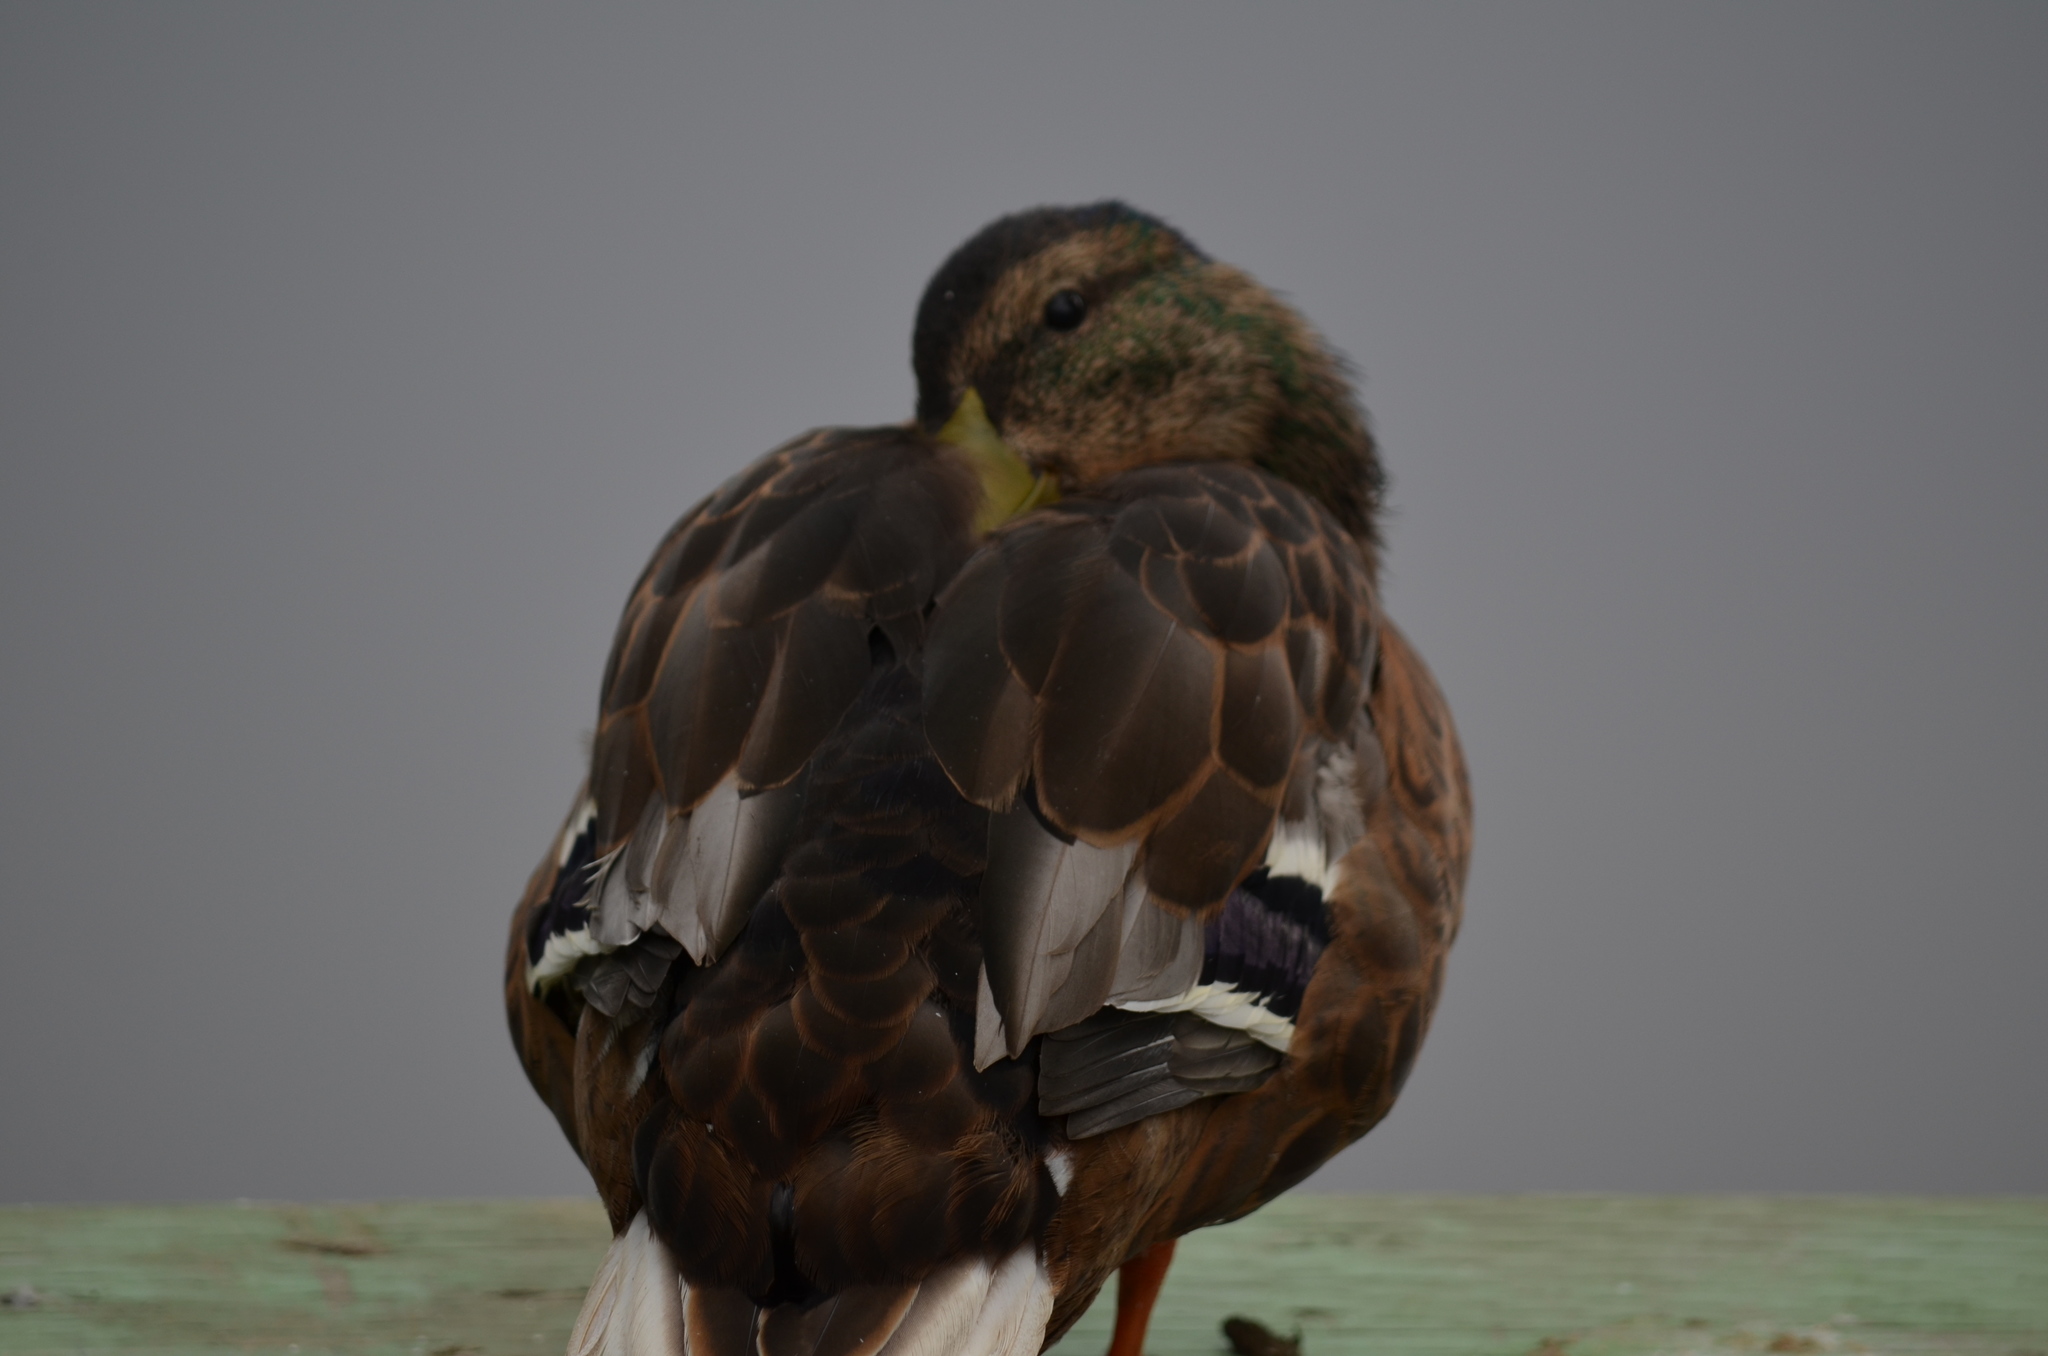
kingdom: Animalia
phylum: Chordata
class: Aves
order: Anseriformes
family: Anatidae
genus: Anas
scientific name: Anas platyrhynchos
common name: Mallard
